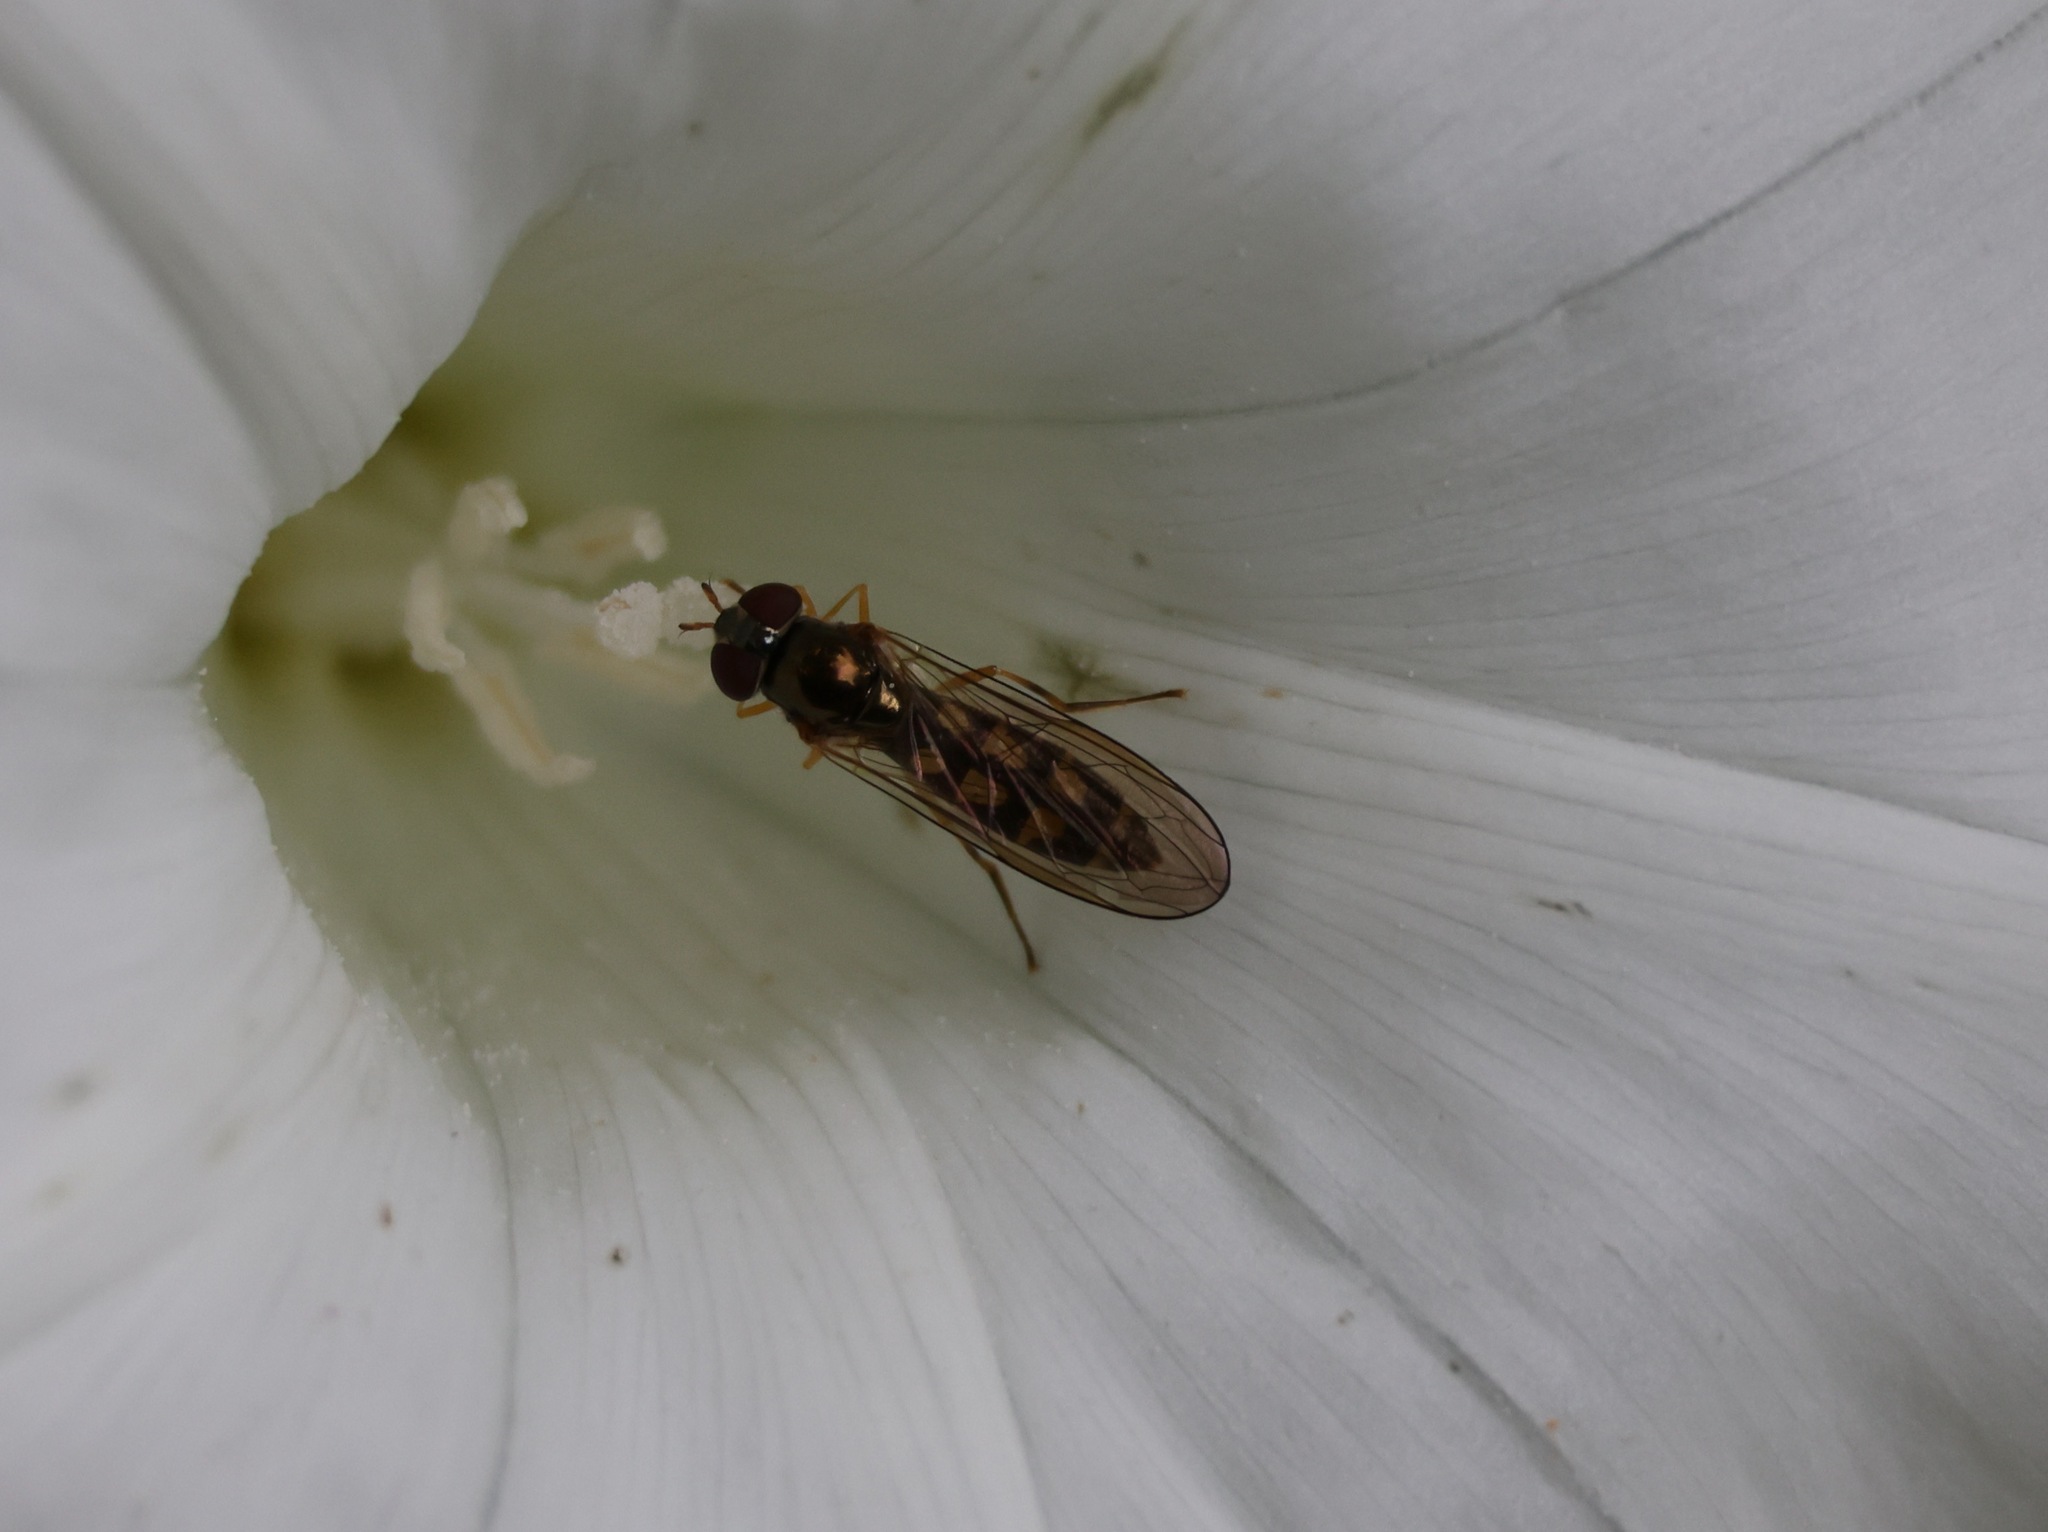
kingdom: Animalia
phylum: Arthropoda
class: Insecta
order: Diptera
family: Syrphidae
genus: Melanostoma
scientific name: Melanostoma scalare
